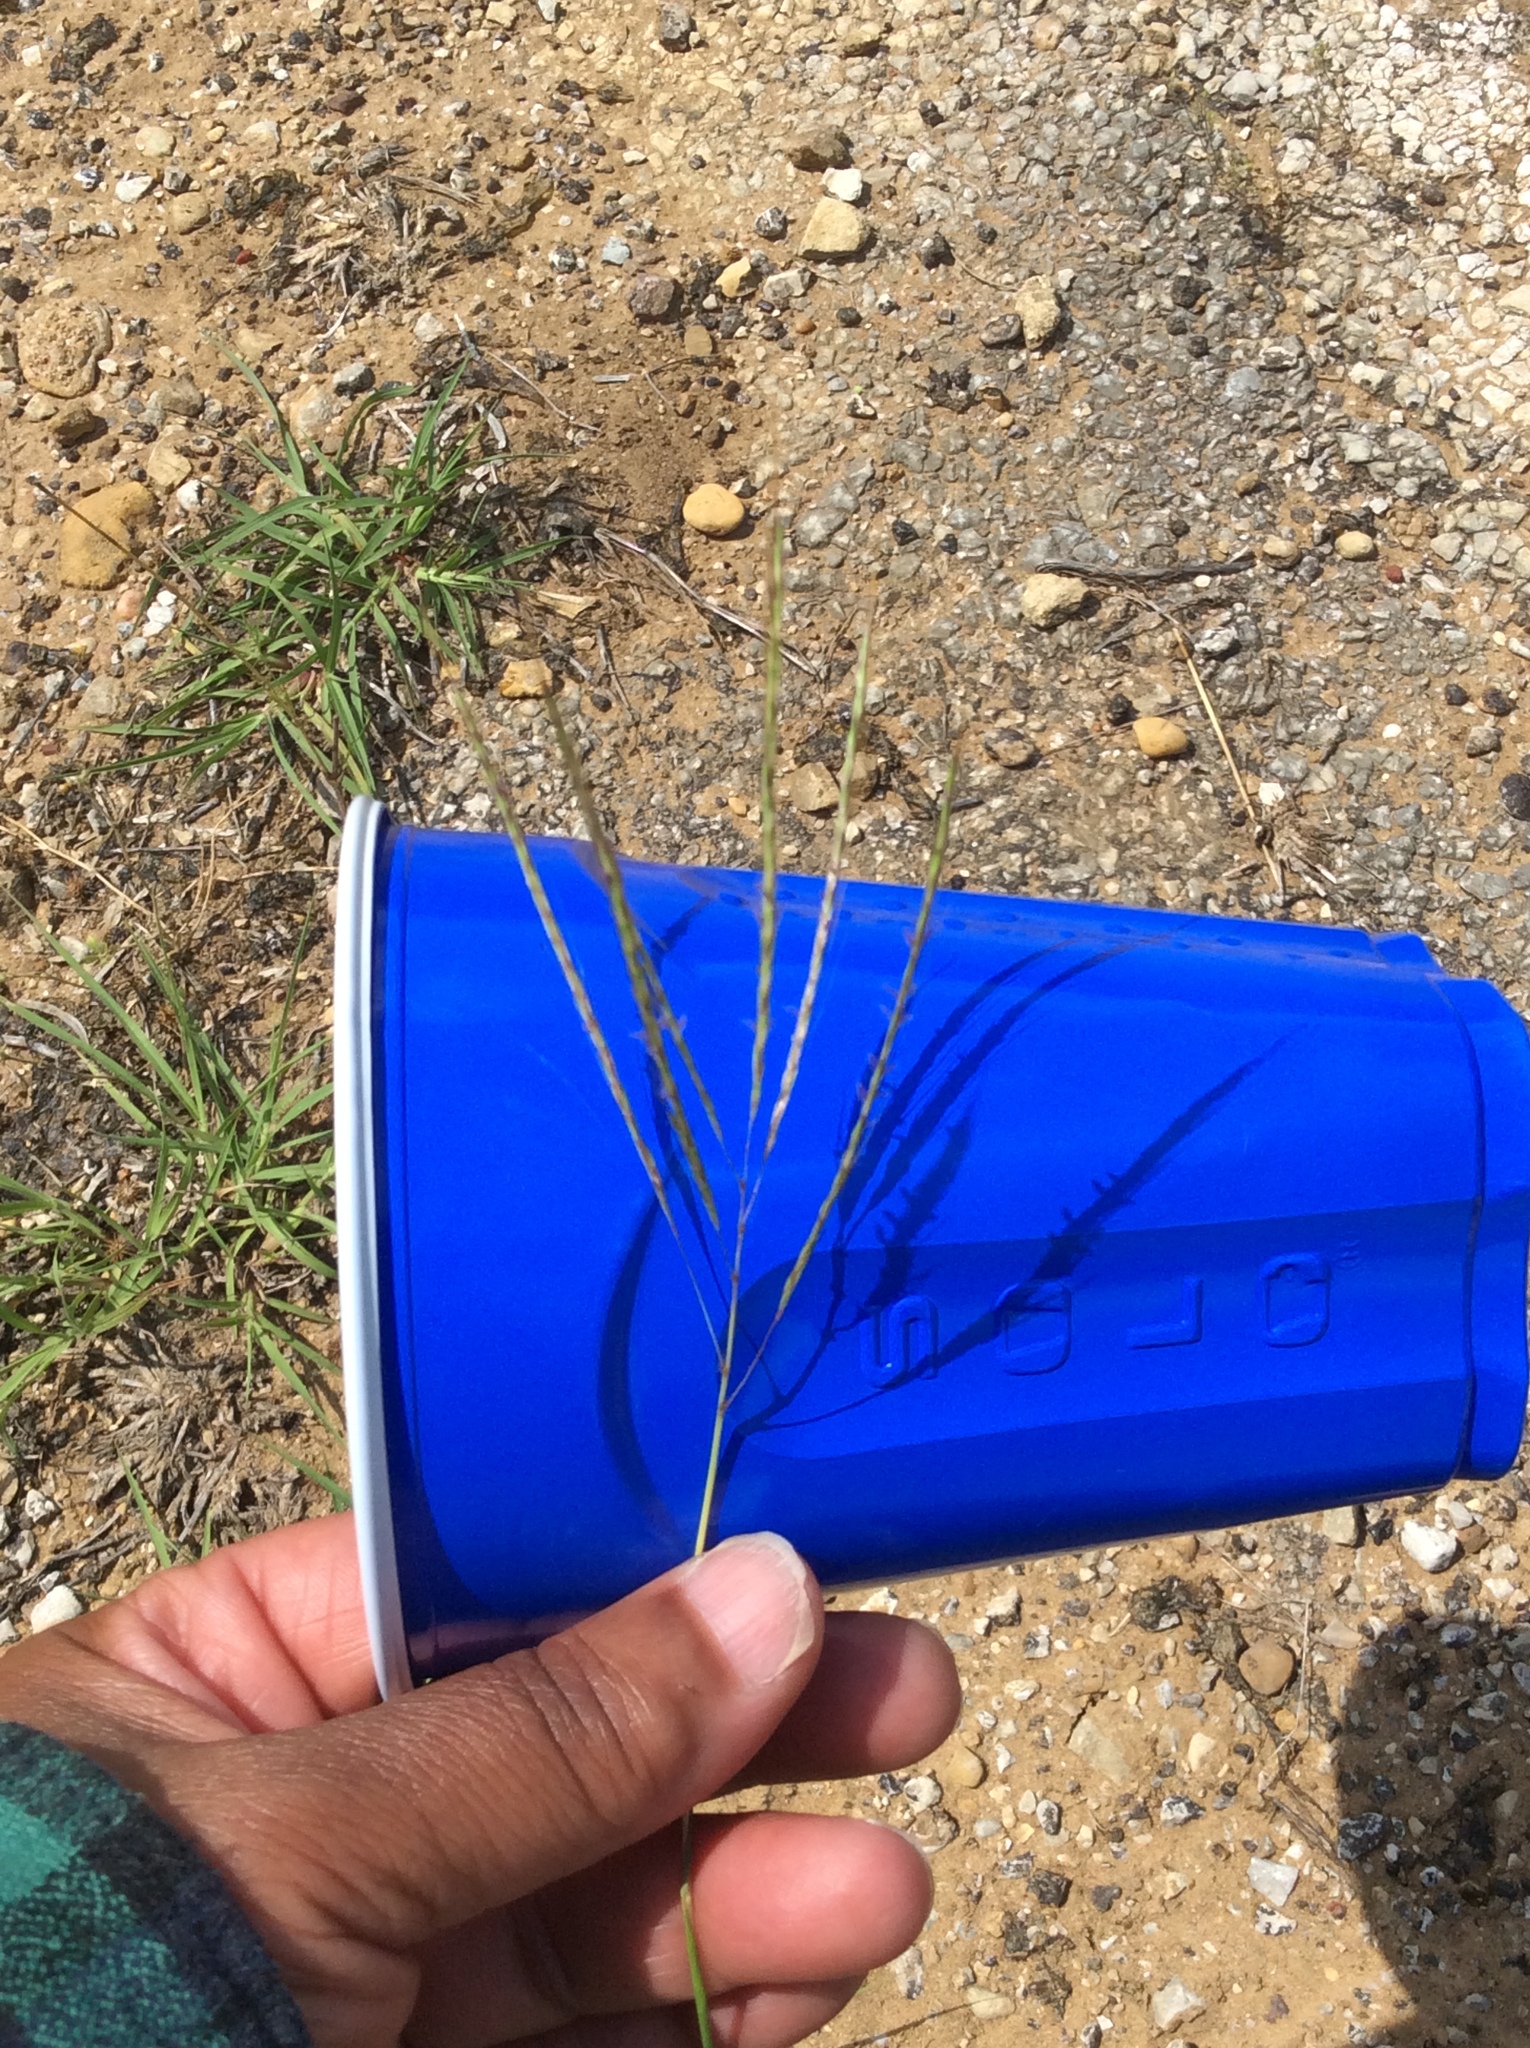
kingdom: Plantae
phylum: Tracheophyta
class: Liliopsida
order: Poales
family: Poaceae
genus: Bothriochloa
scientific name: Bothriochloa ischaemum
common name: Yellow bluestem
